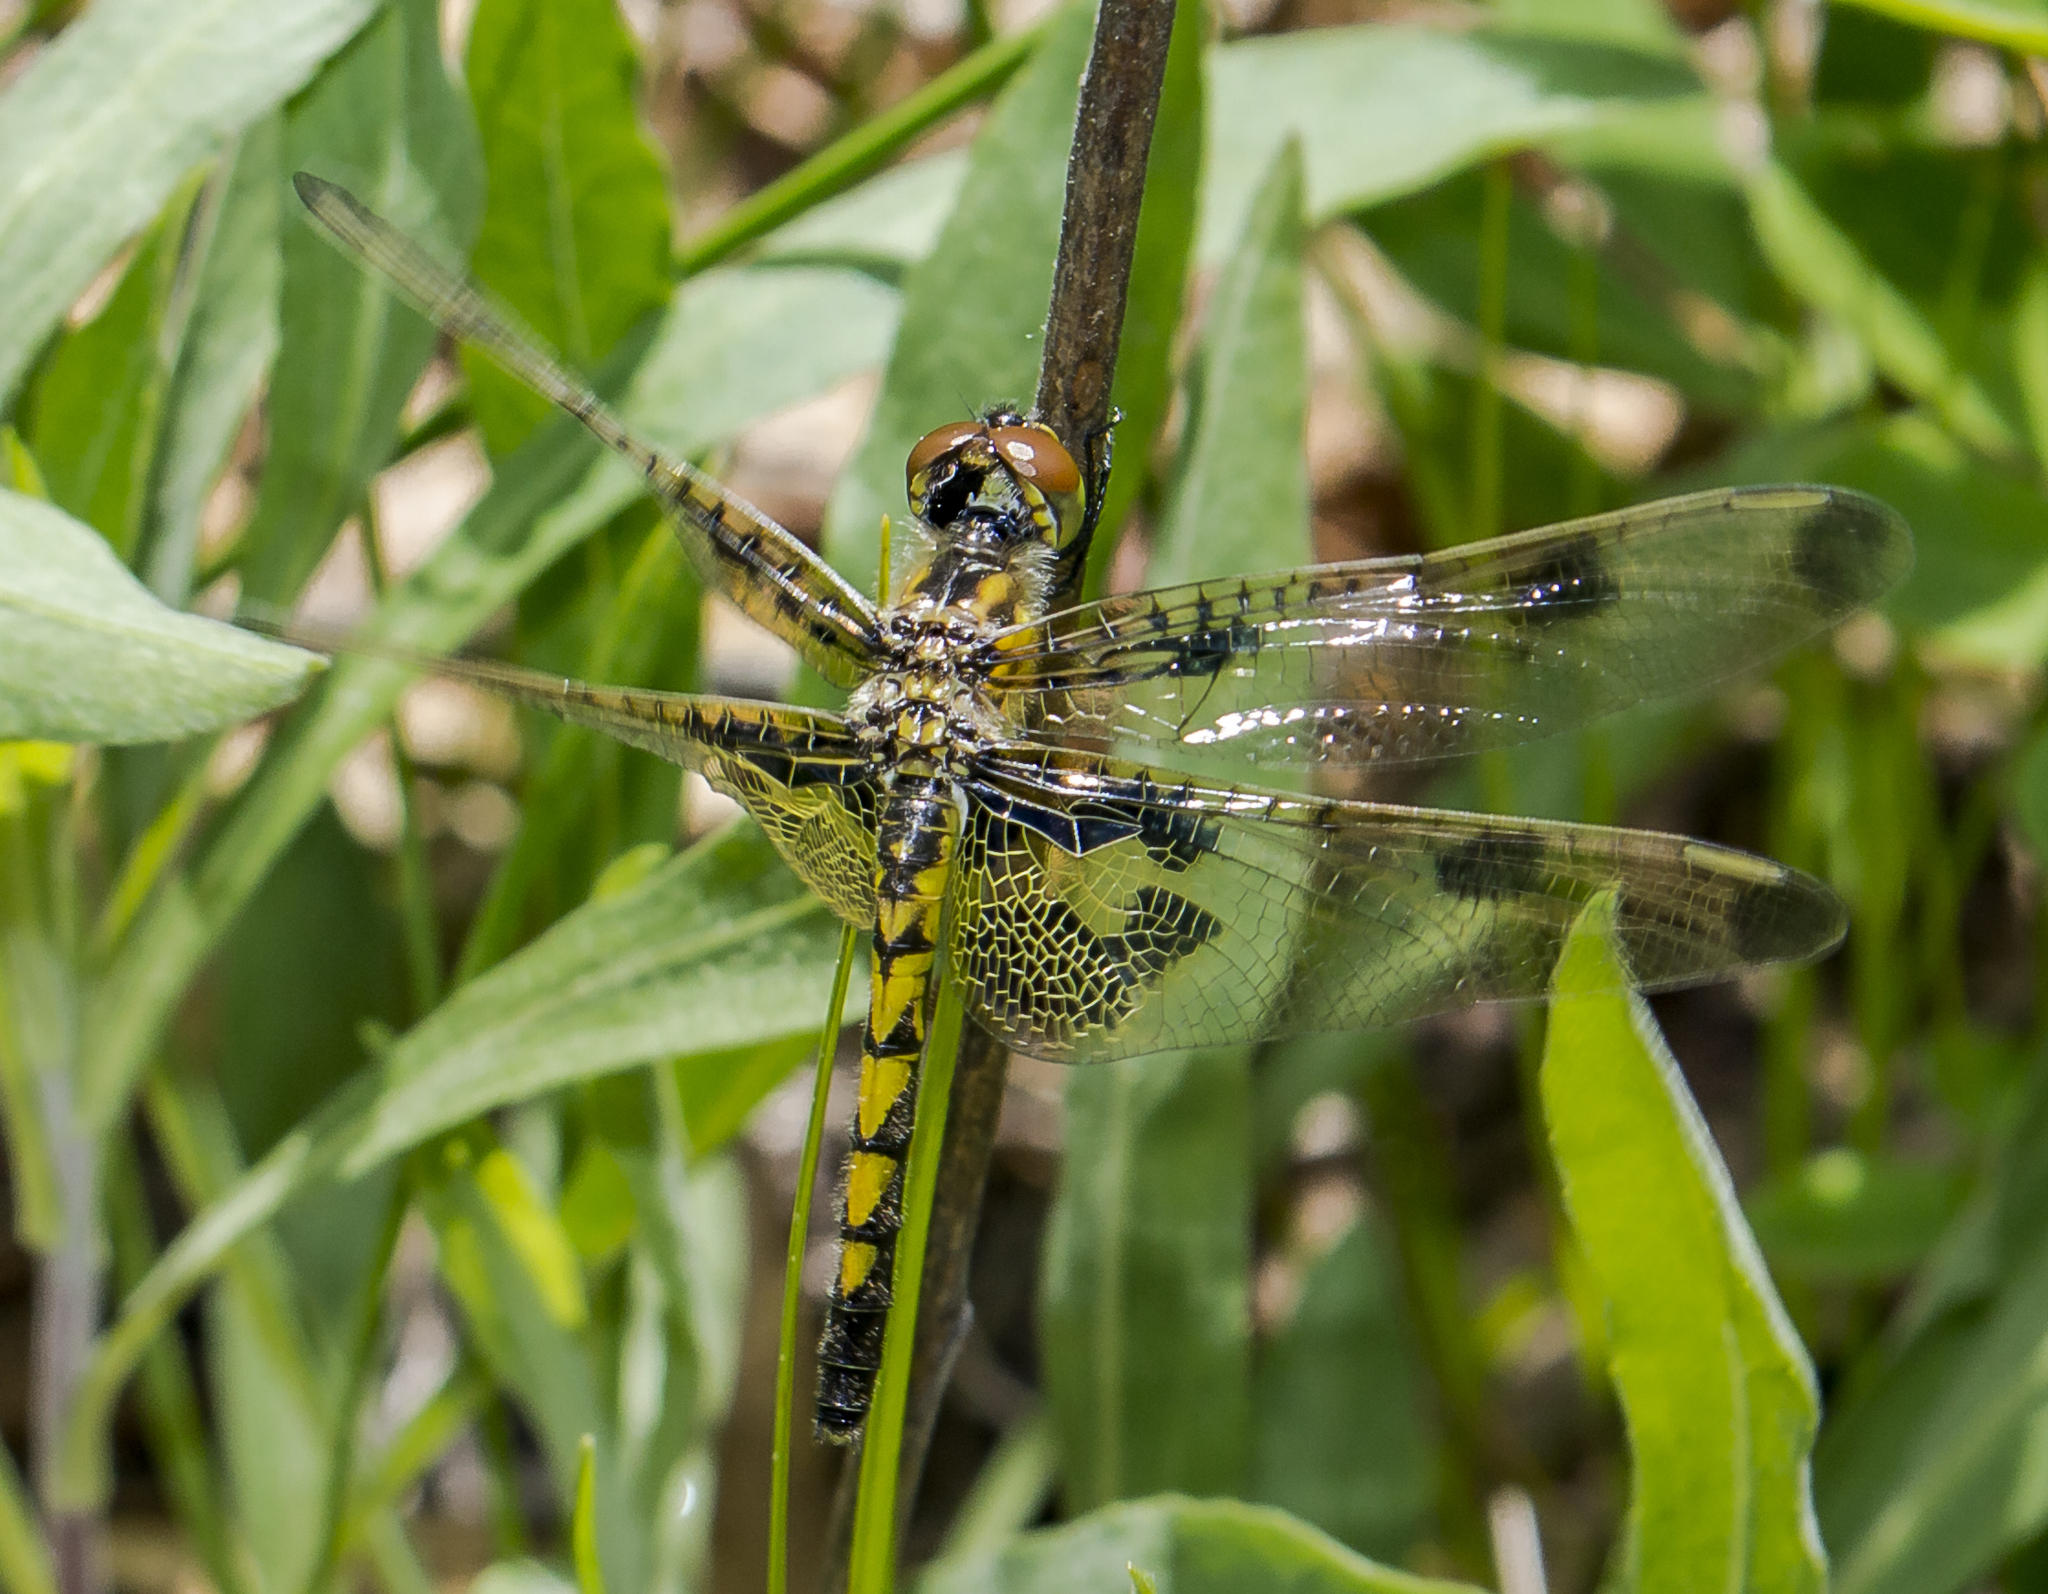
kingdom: Animalia
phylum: Arthropoda
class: Insecta
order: Odonata
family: Libellulidae
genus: Celithemis
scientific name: Celithemis elisa
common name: Calico pennant
